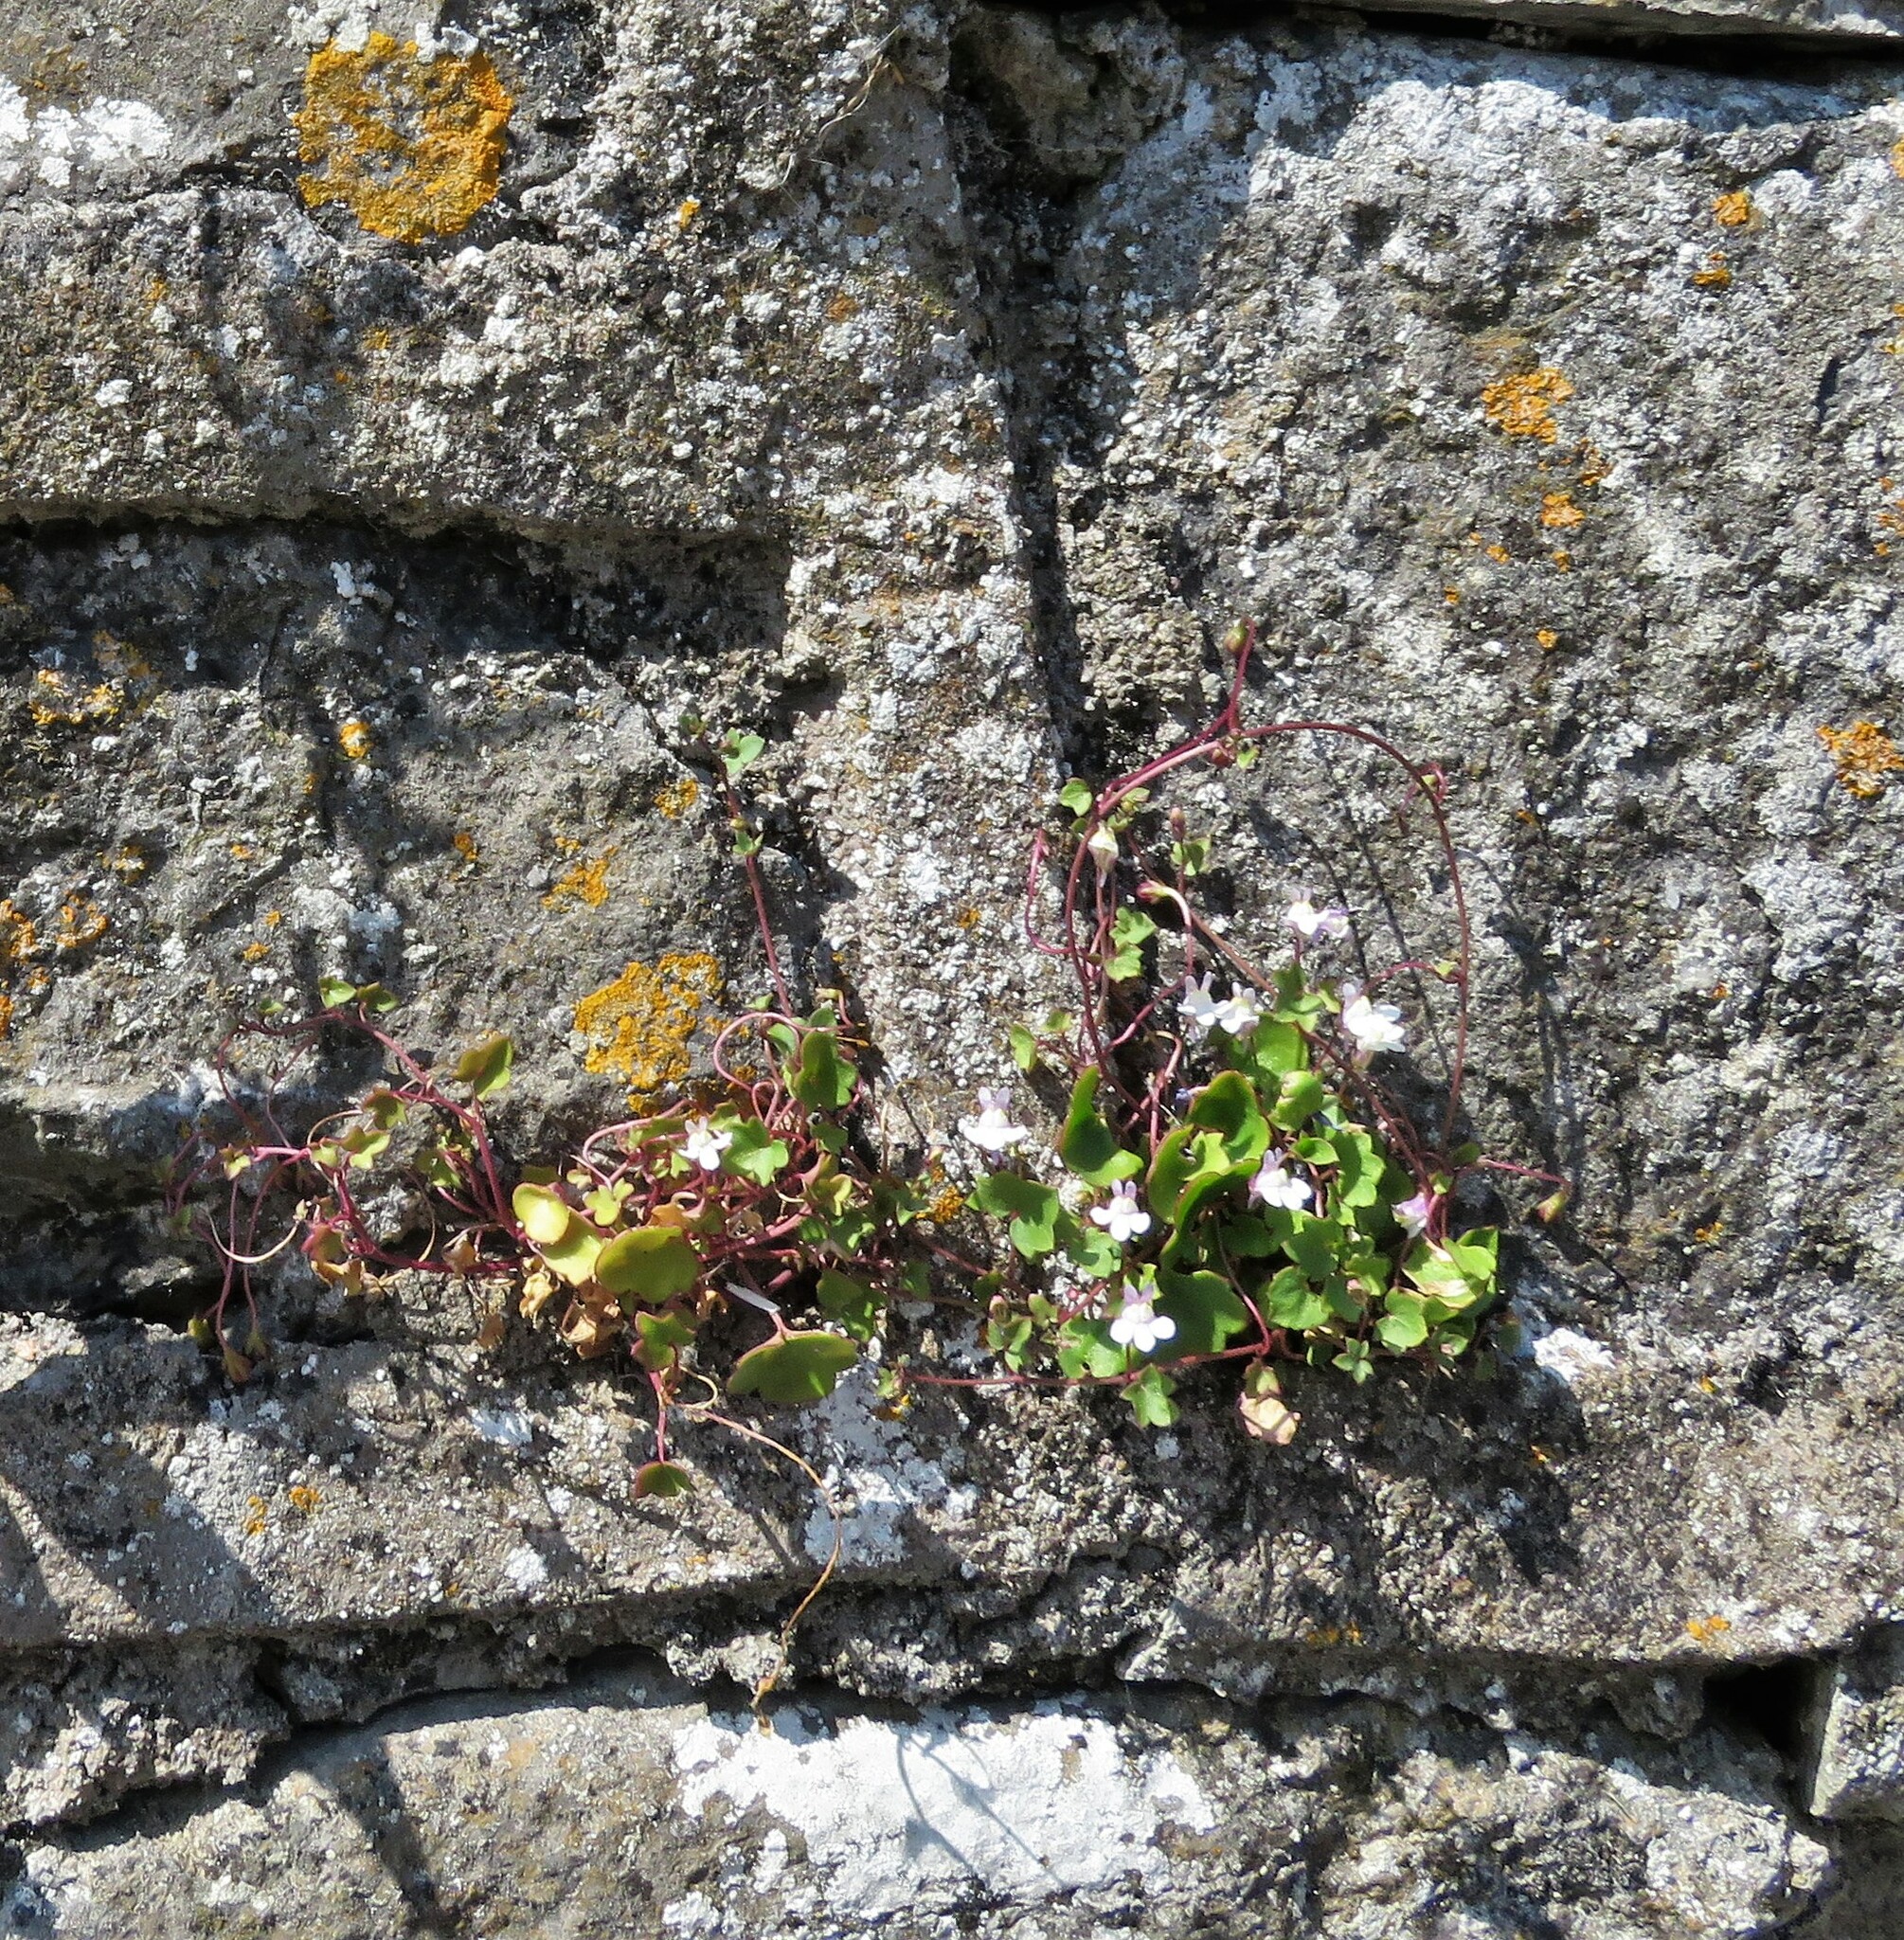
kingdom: Plantae
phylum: Tracheophyta
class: Magnoliopsida
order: Lamiales
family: Plantaginaceae
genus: Cymbalaria
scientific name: Cymbalaria muralis
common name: Ivy-leaved toadflax
